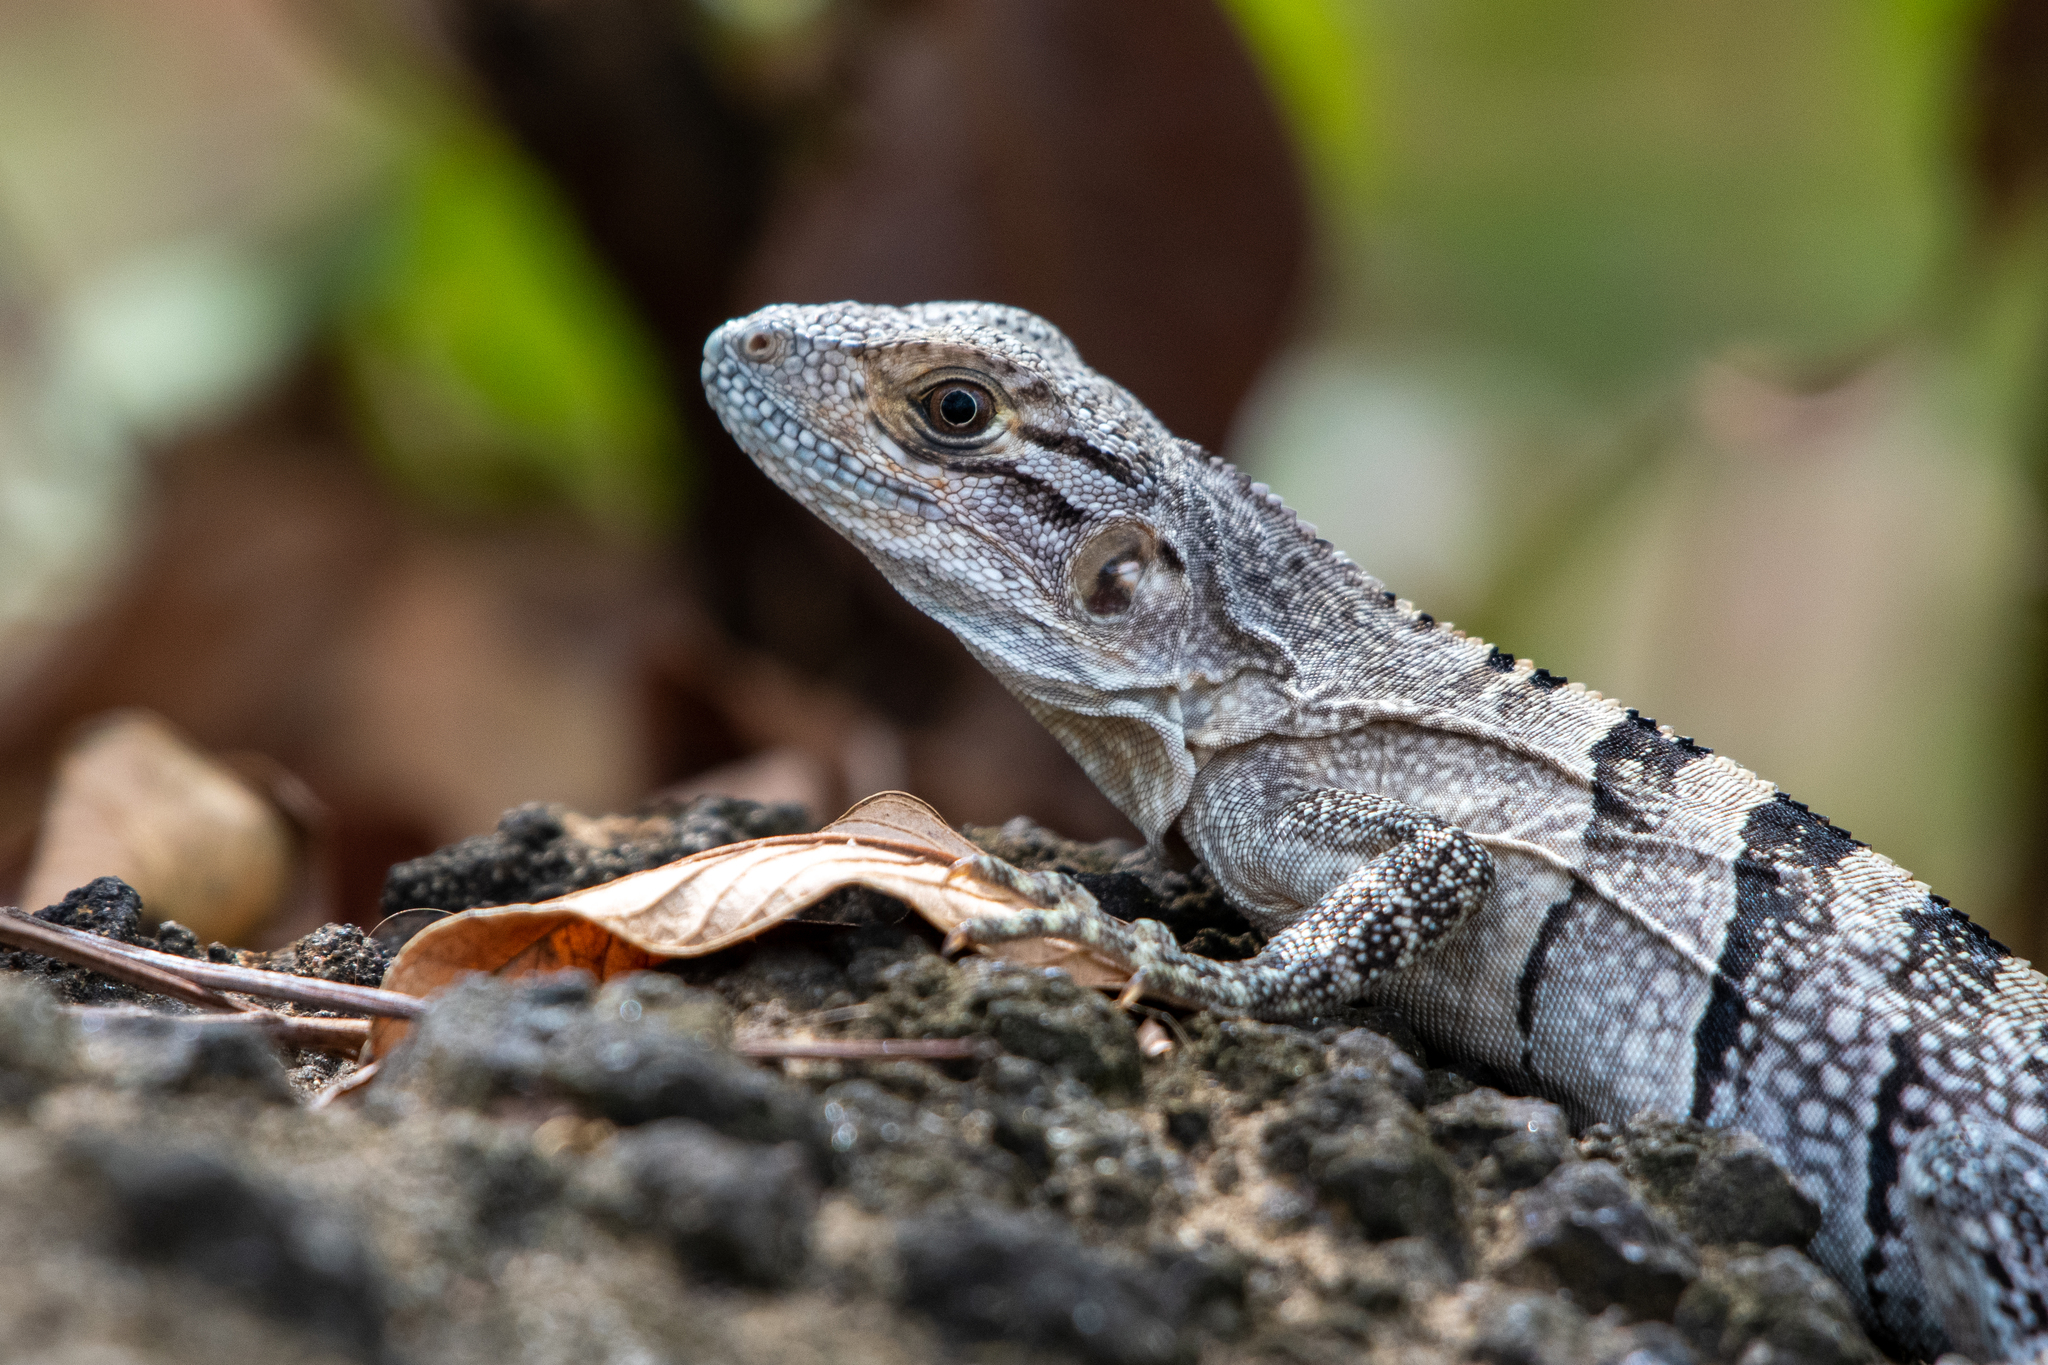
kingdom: Animalia
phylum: Chordata
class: Squamata
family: Iguanidae
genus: Ctenosaura
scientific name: Ctenosaura similis
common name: Black spiny-tailed iguana
